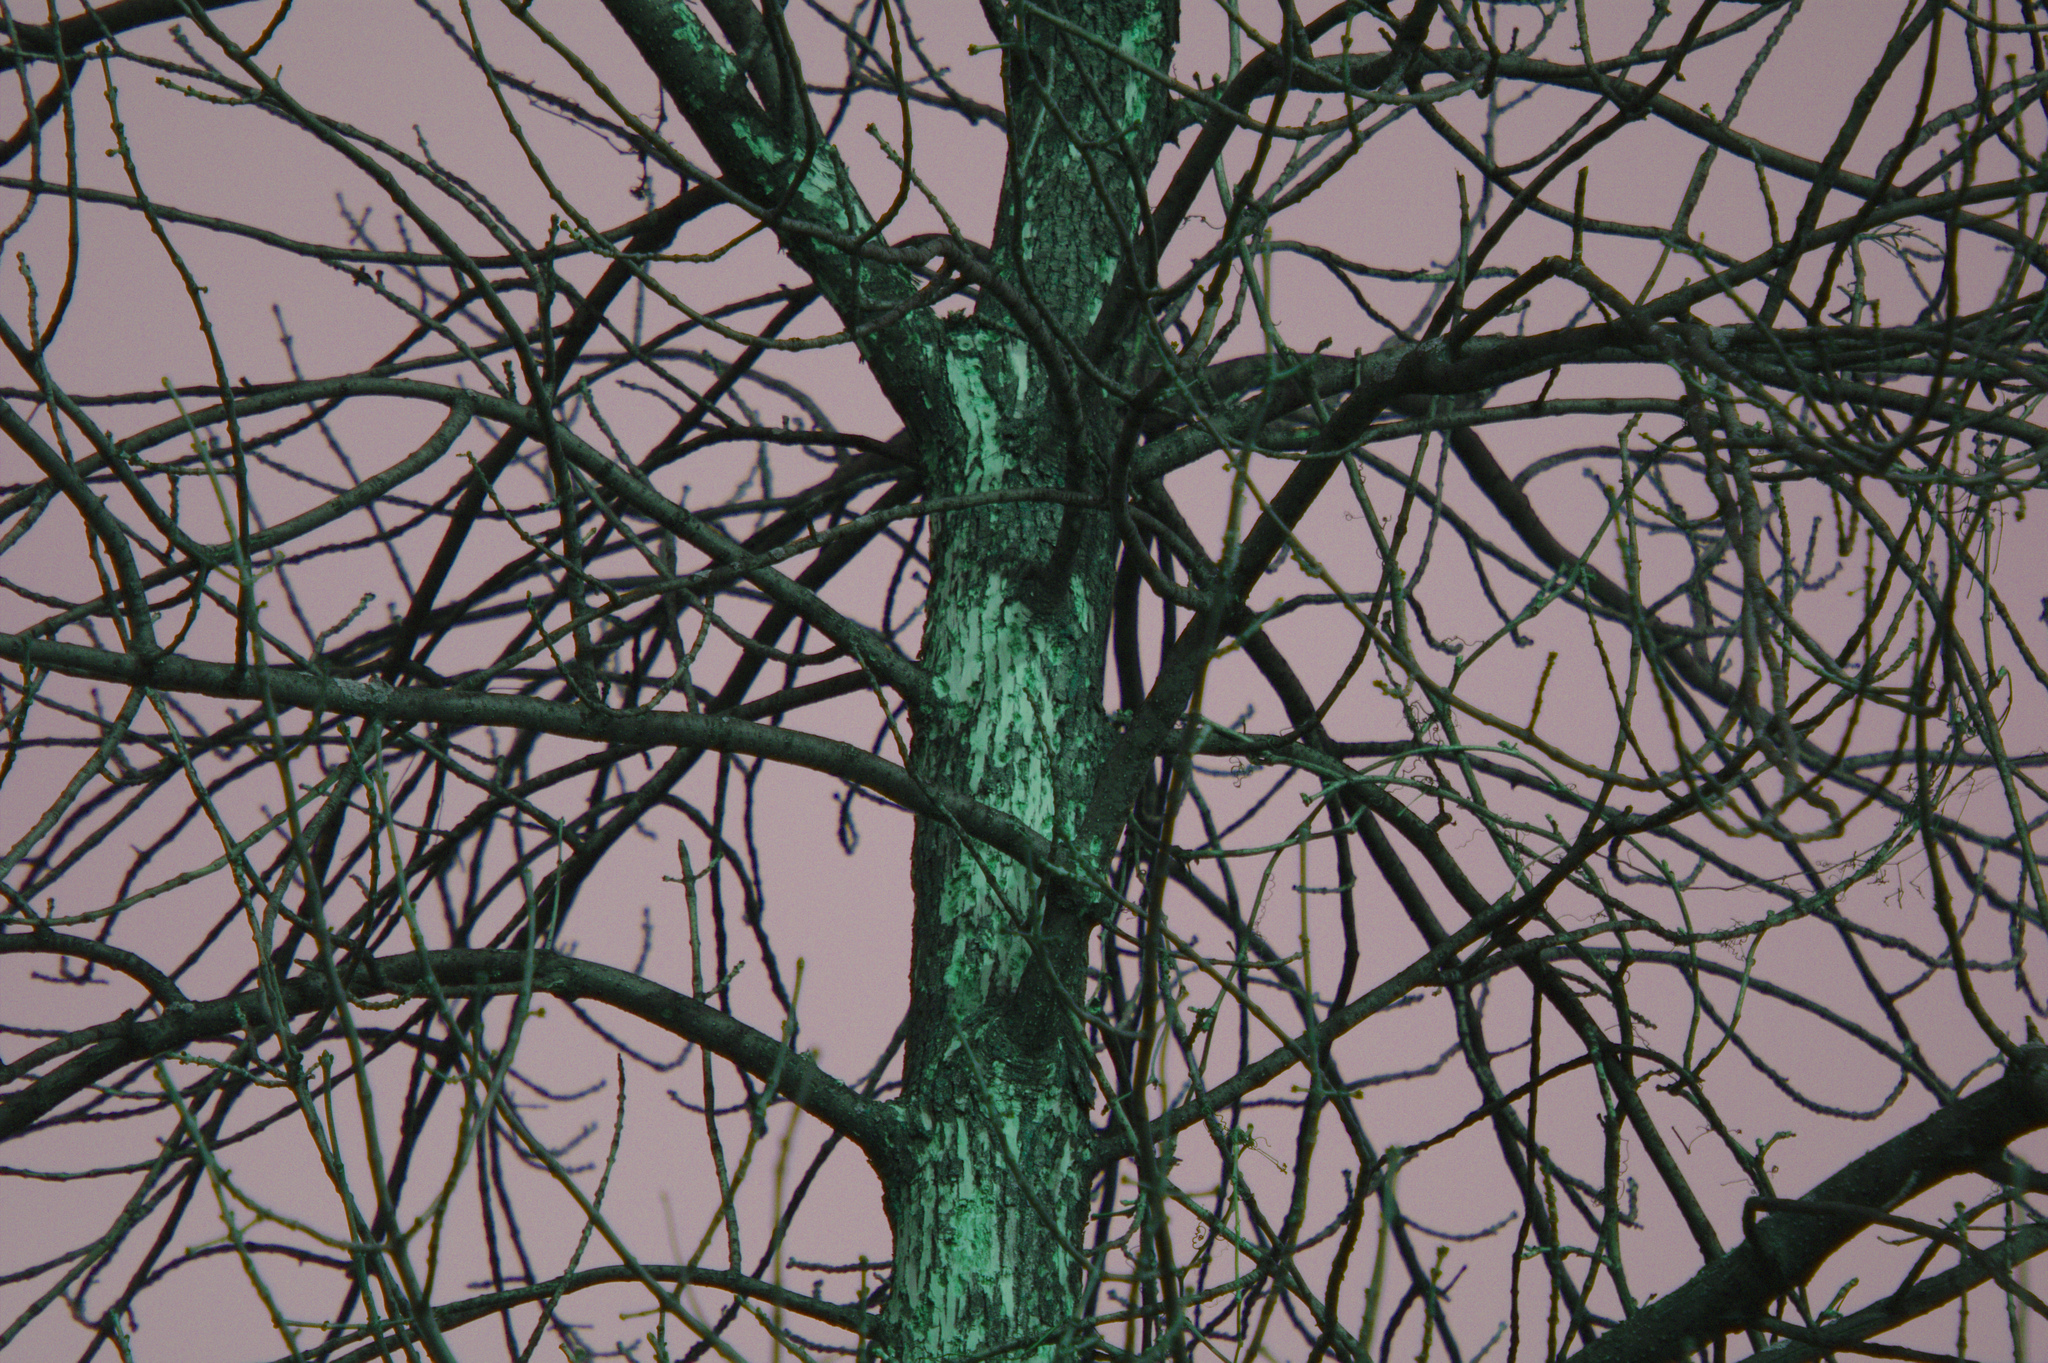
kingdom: Animalia
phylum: Arthropoda
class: Insecta
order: Coleoptera
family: Buprestidae
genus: Agrilus
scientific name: Agrilus planipennis
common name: Emerald ash borer
